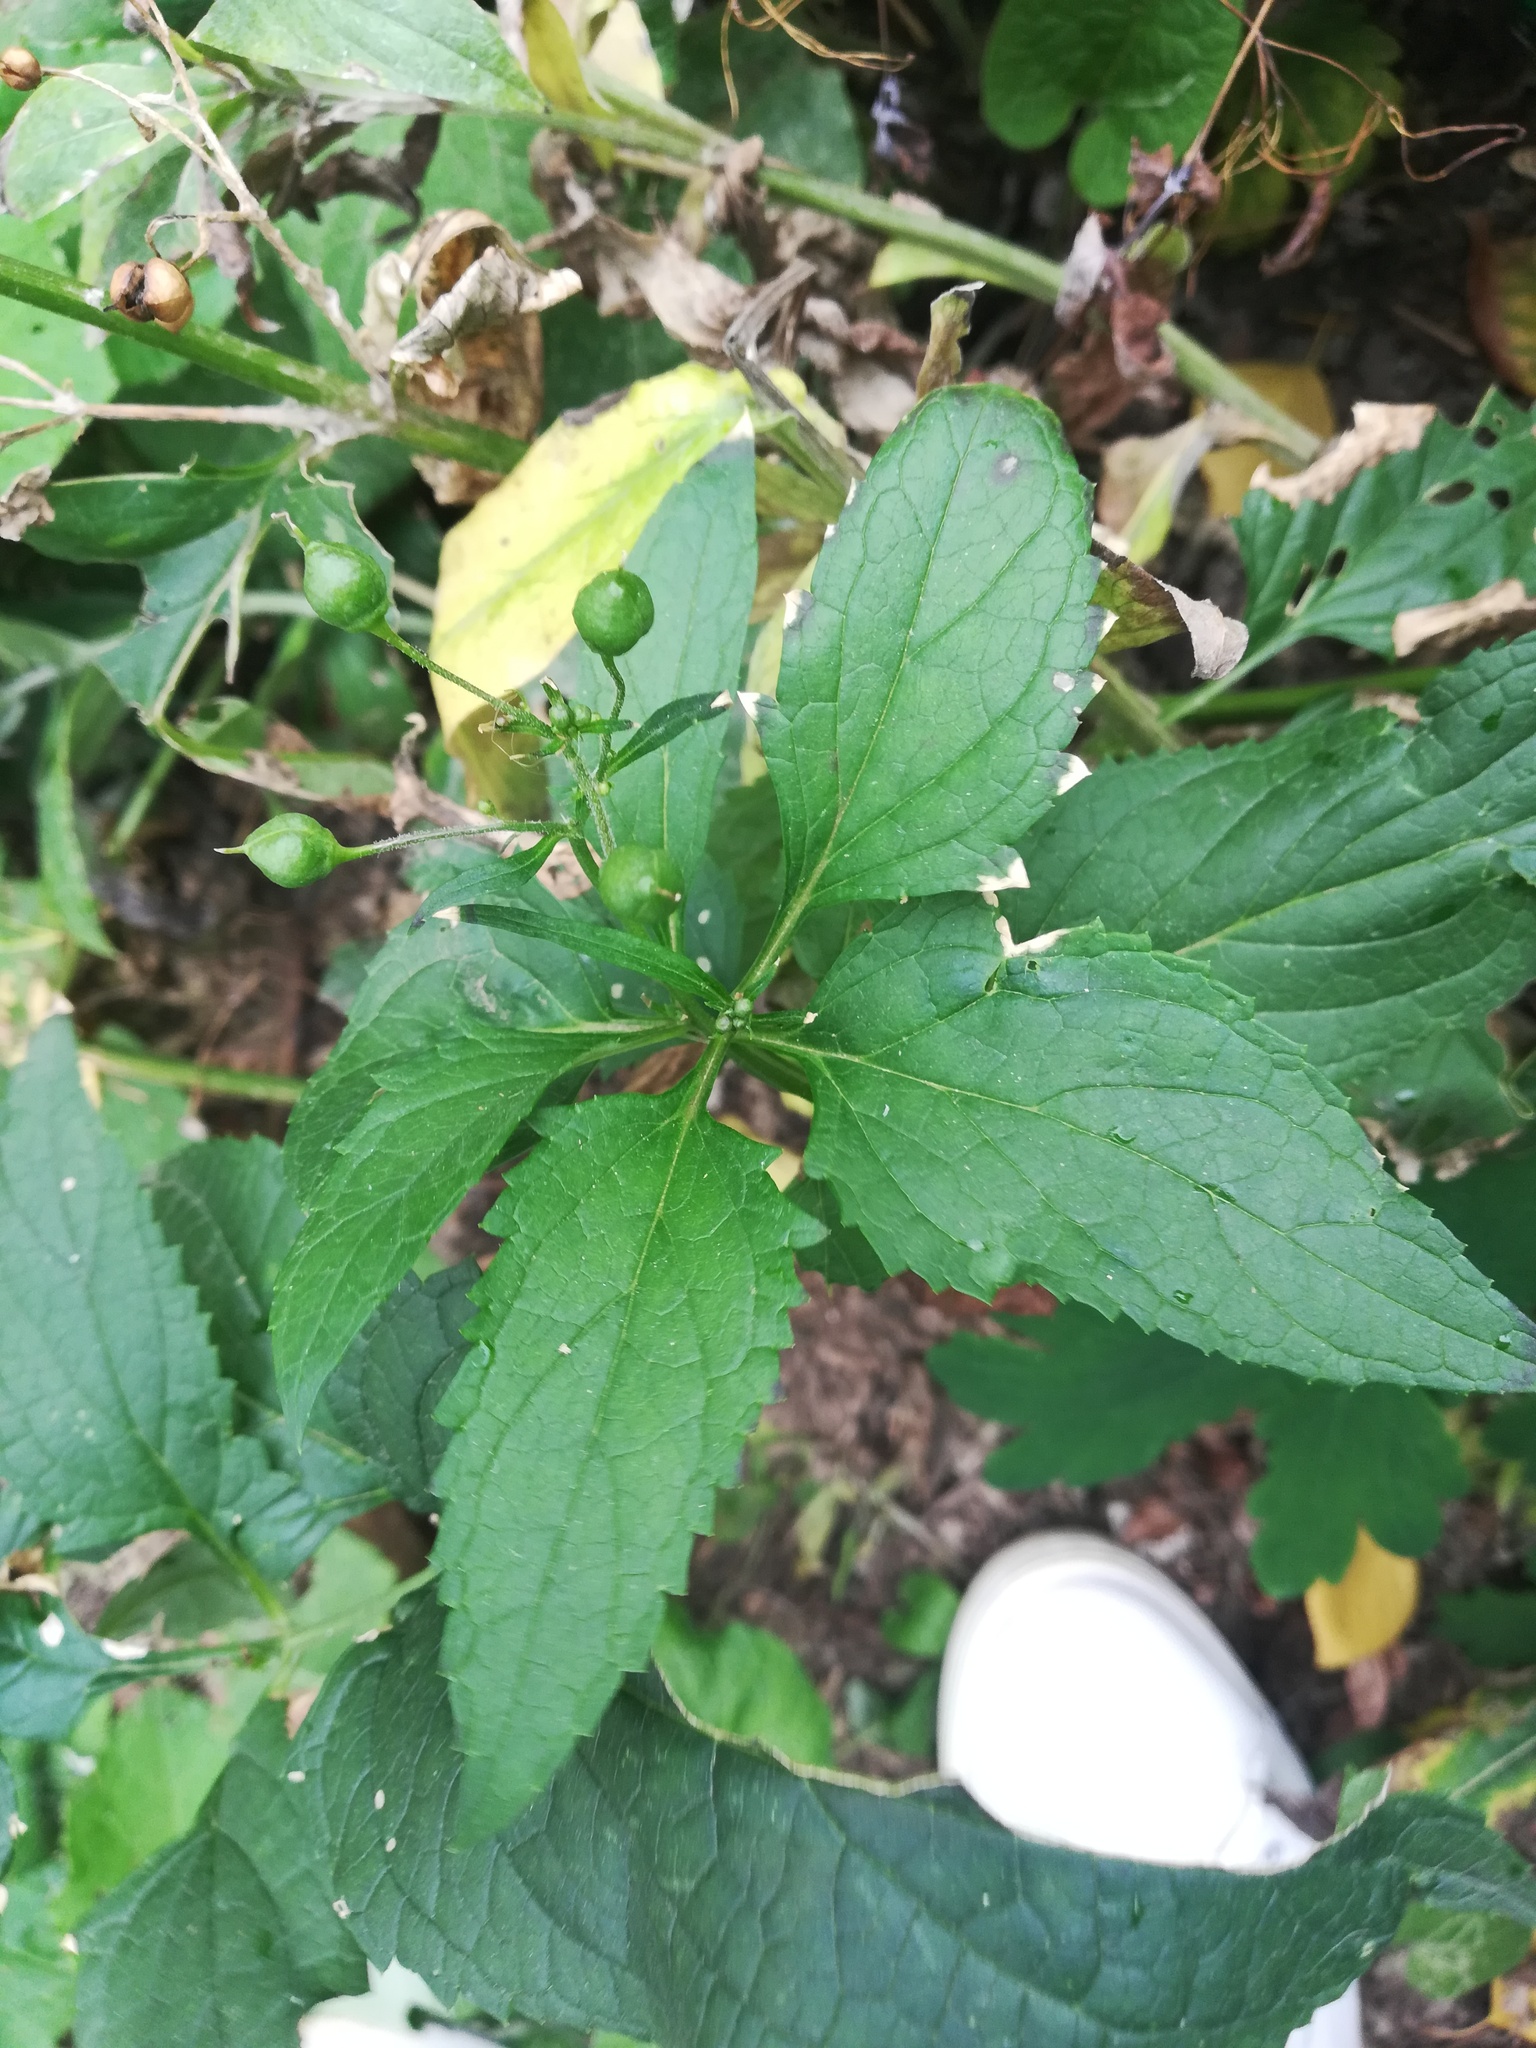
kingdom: Plantae
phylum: Tracheophyta
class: Magnoliopsida
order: Lamiales
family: Scrophulariaceae
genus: Scrophularia
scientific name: Scrophularia nodosa
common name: Common figwort
